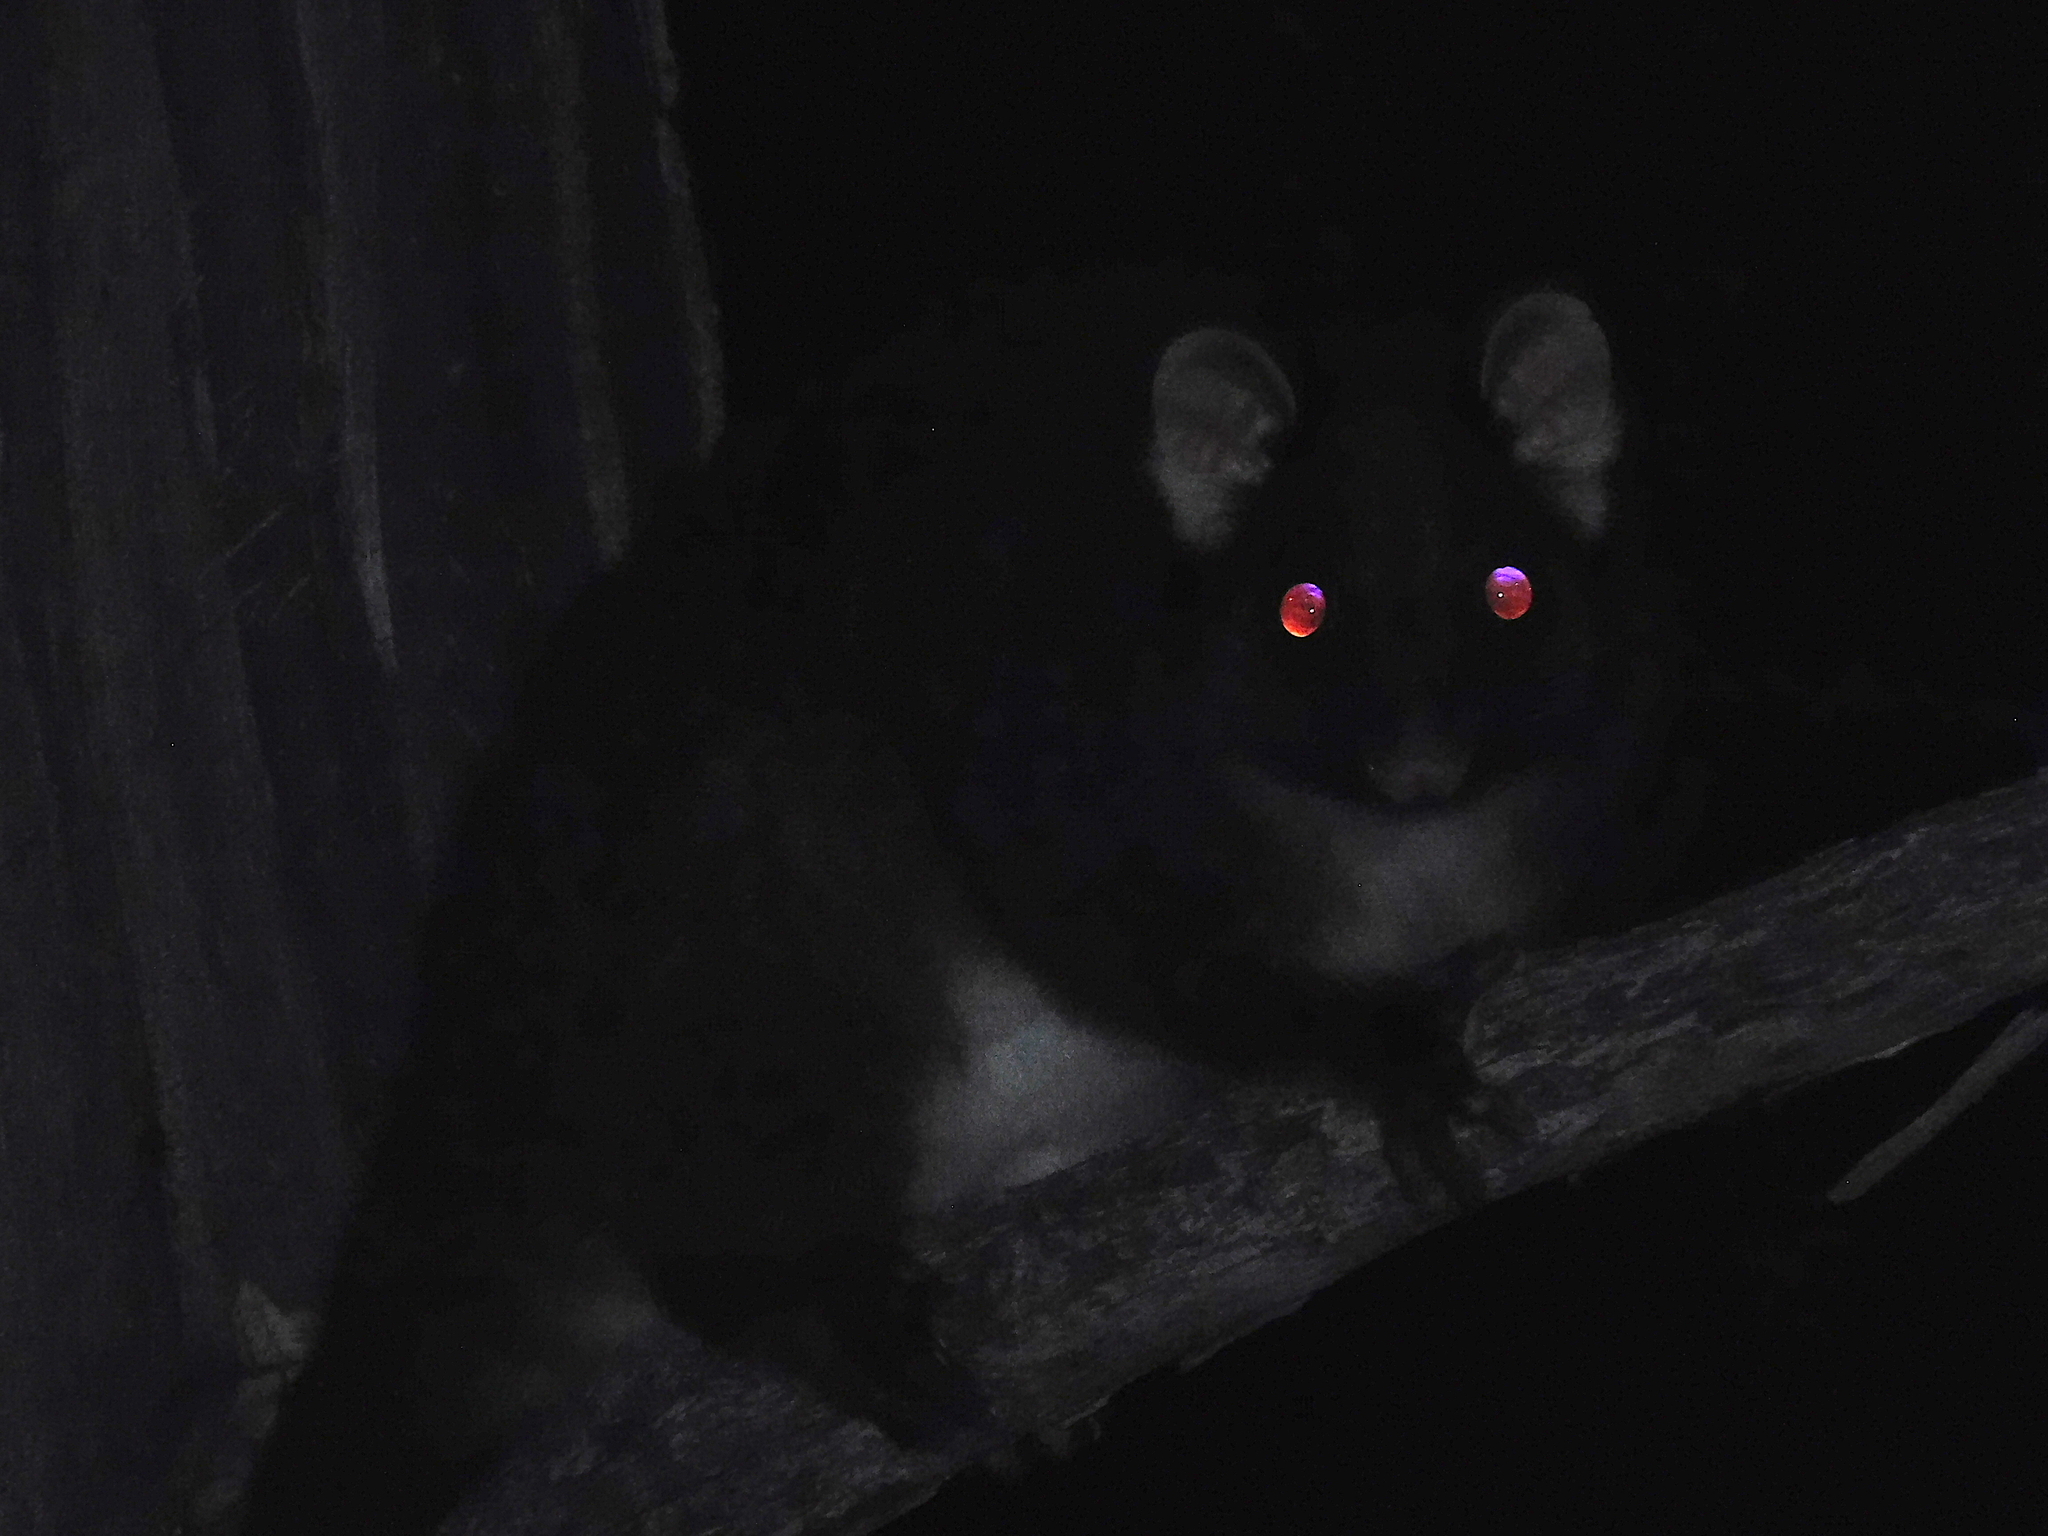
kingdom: Animalia
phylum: Chordata
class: Mammalia
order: Diprotodontia
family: Pseudocheiridae
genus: Pseudocheirus
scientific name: Pseudocheirus peregrinus
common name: Common ringtail possum
